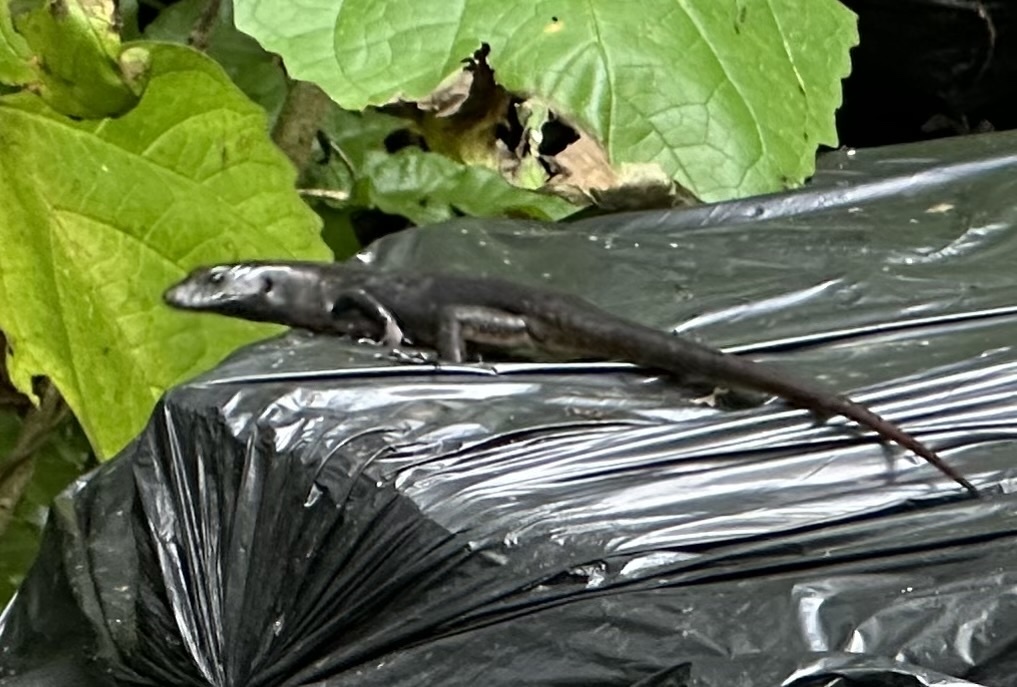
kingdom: Animalia
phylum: Chordata
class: Squamata
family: Scincidae
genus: Emoia
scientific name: Emoia nigra
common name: Black emo skink
